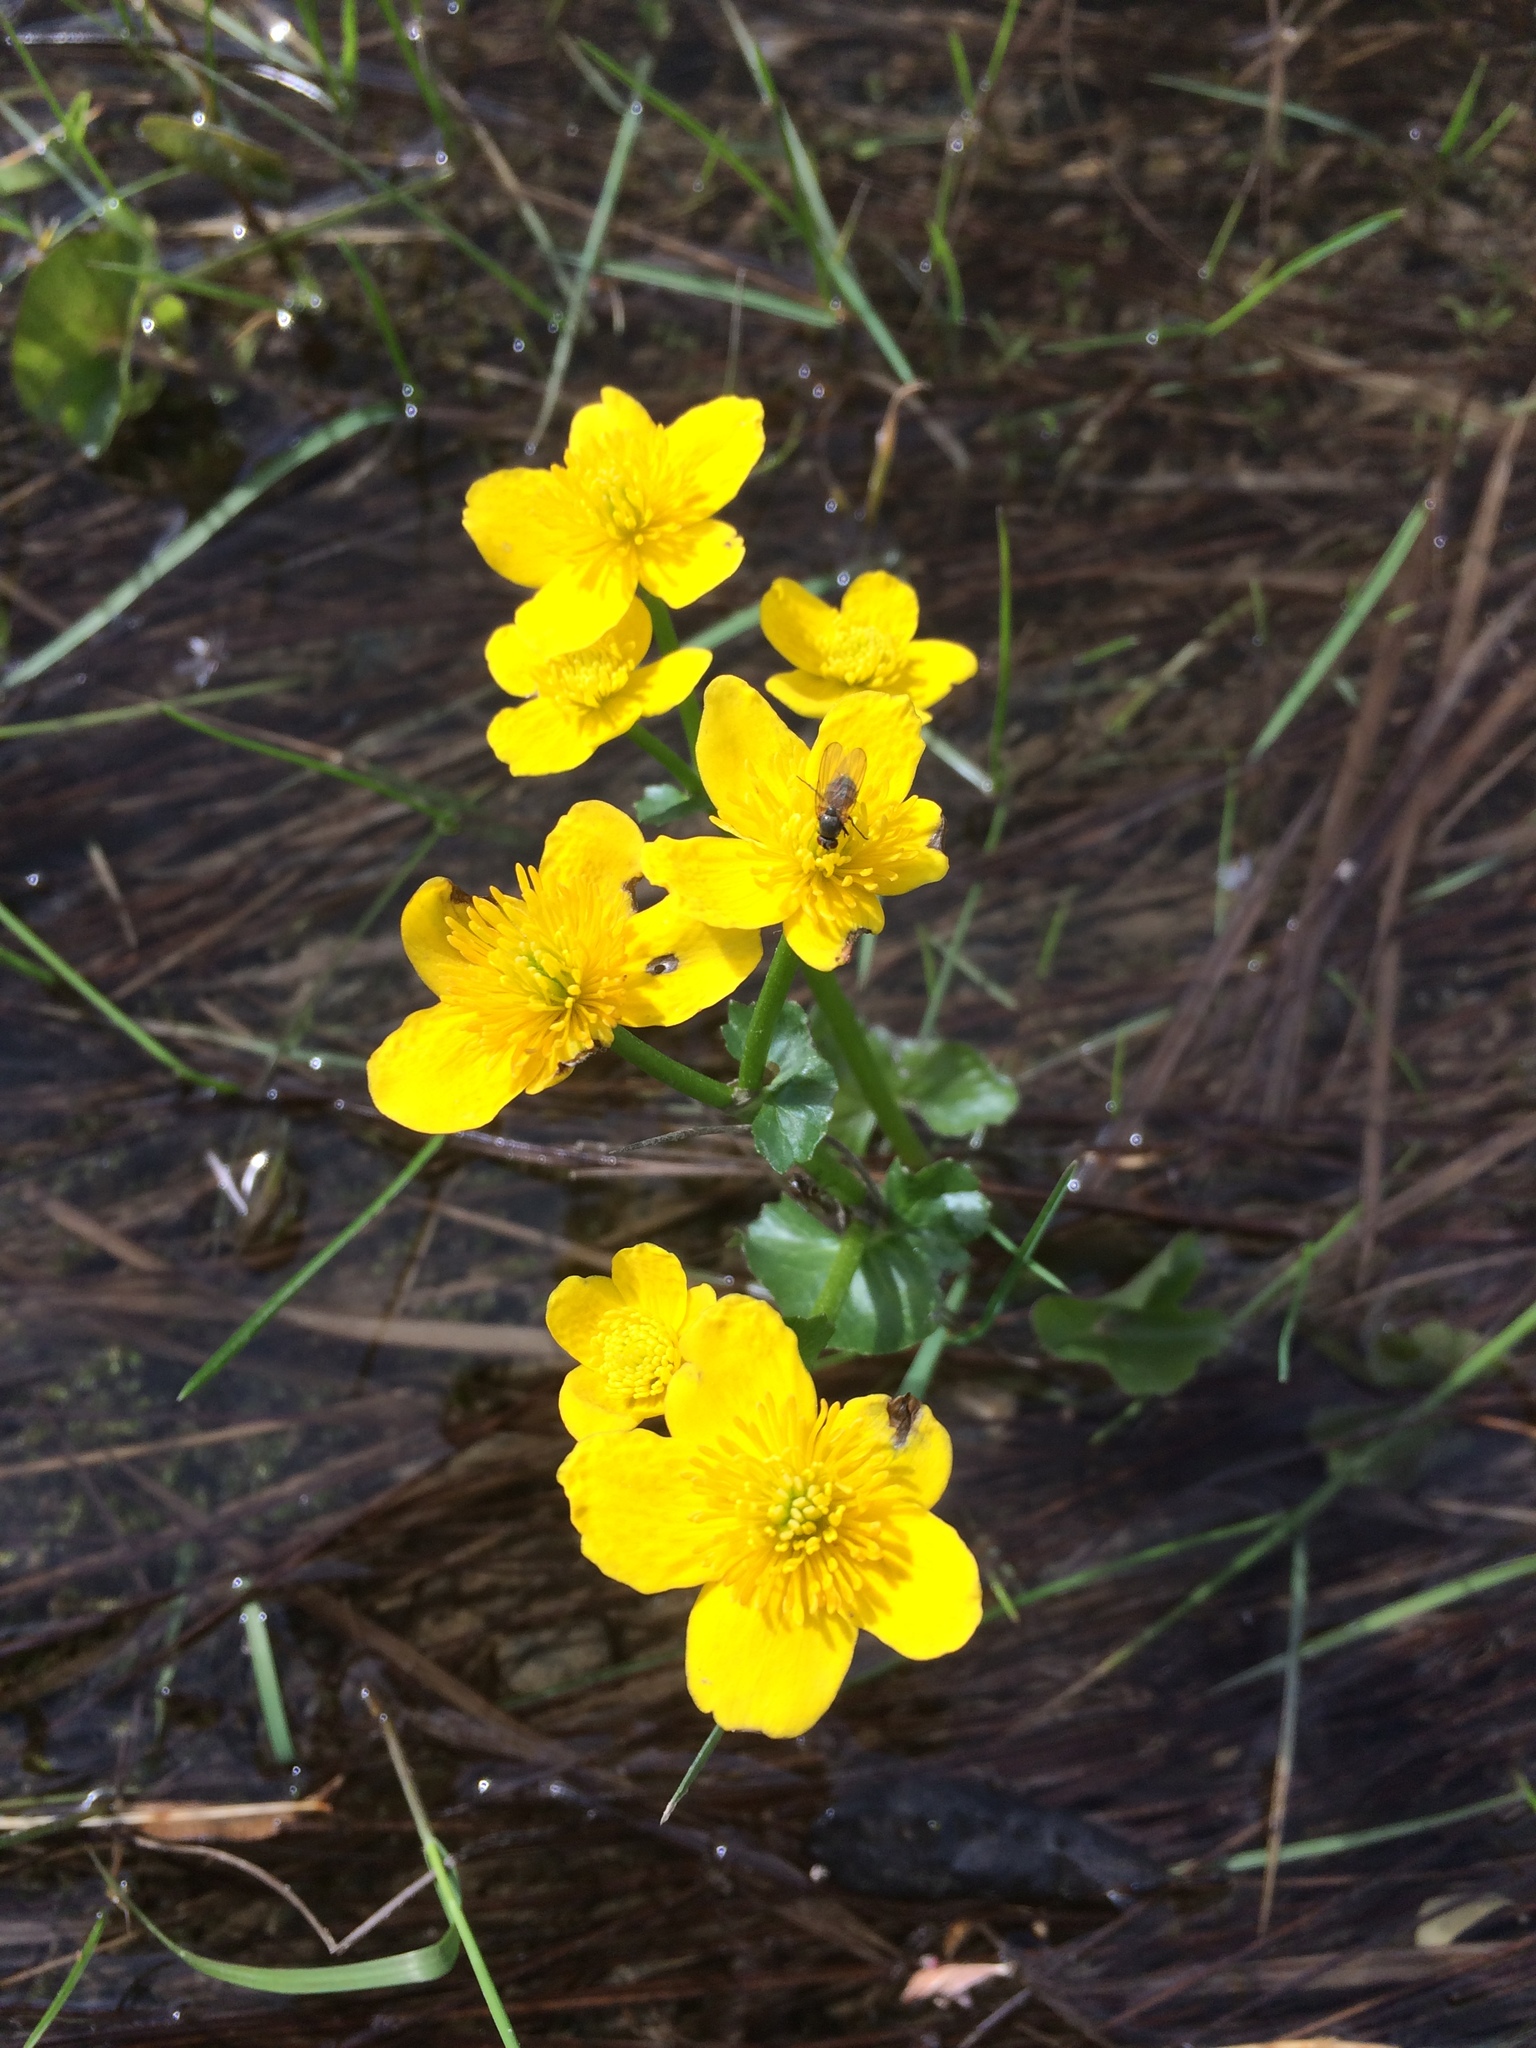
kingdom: Plantae
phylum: Tracheophyta
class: Magnoliopsida
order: Ranunculales
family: Ranunculaceae
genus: Caltha
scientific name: Caltha palustris
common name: Marsh marigold
